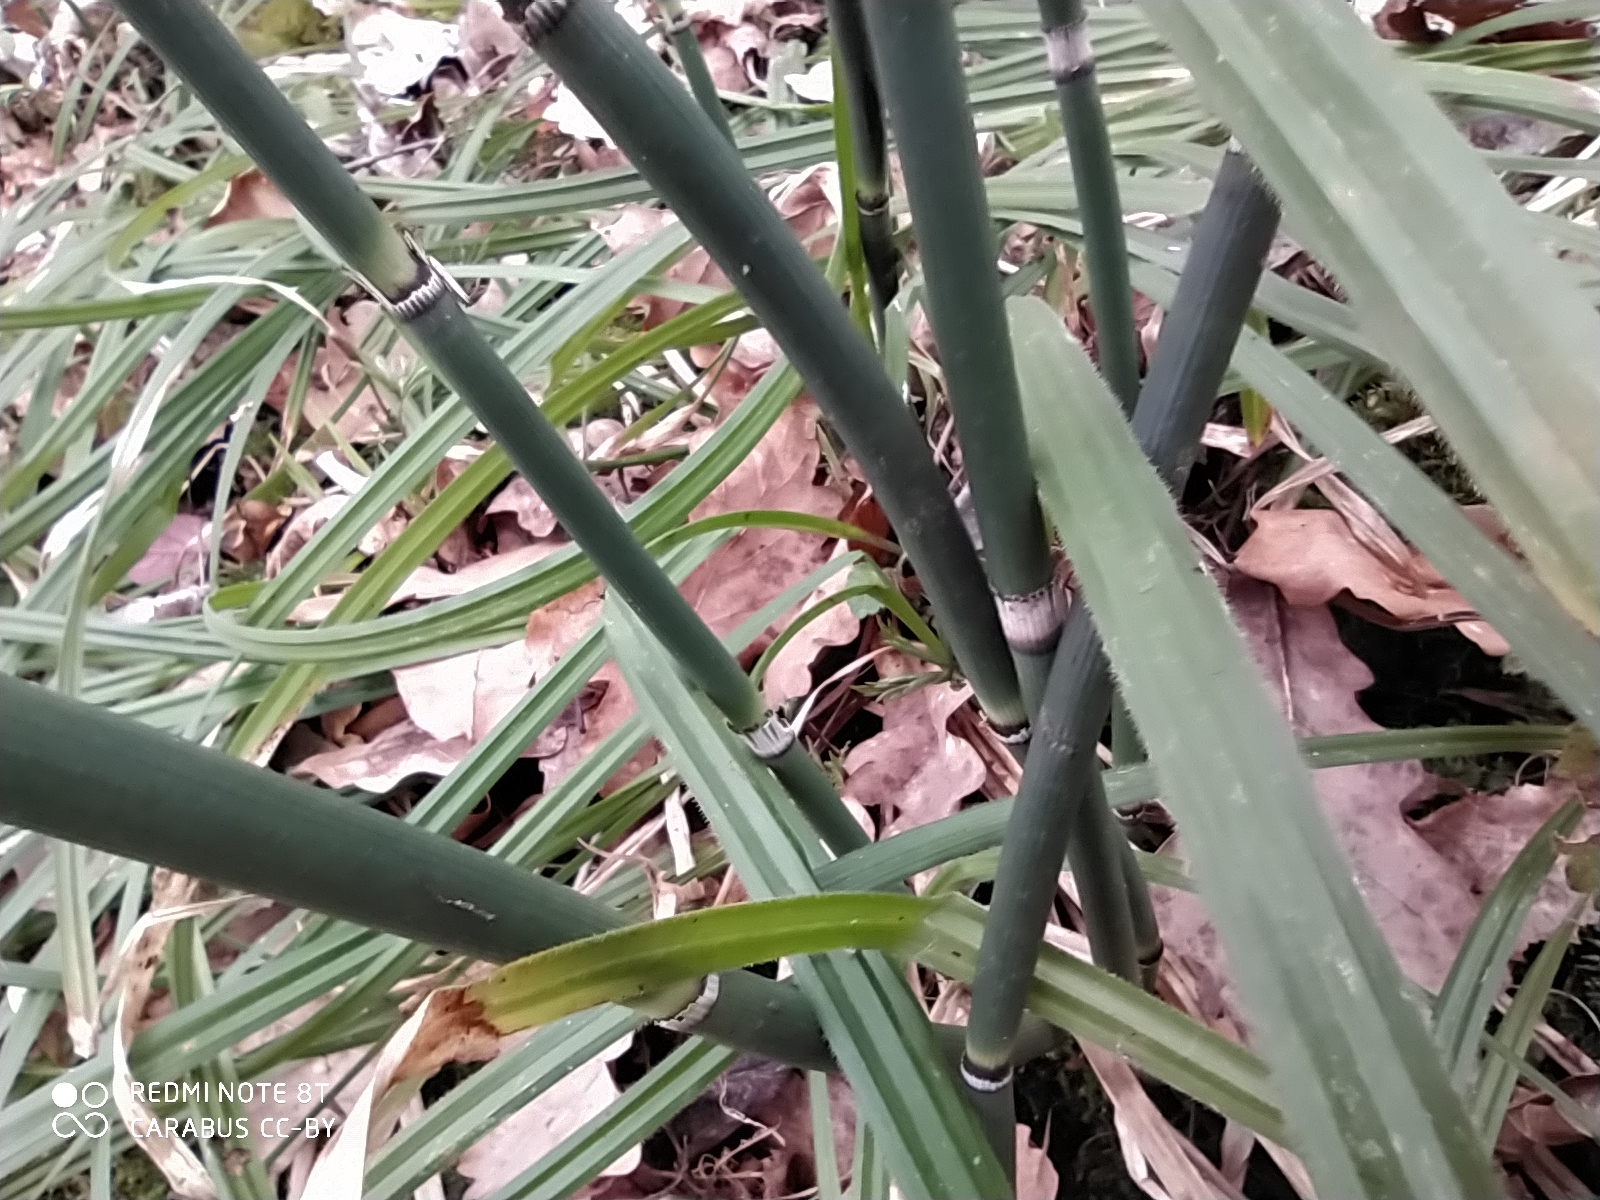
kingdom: Plantae
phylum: Tracheophyta
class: Polypodiopsida
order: Equisetales
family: Equisetaceae
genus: Equisetum
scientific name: Equisetum hyemale
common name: Rough horsetail
